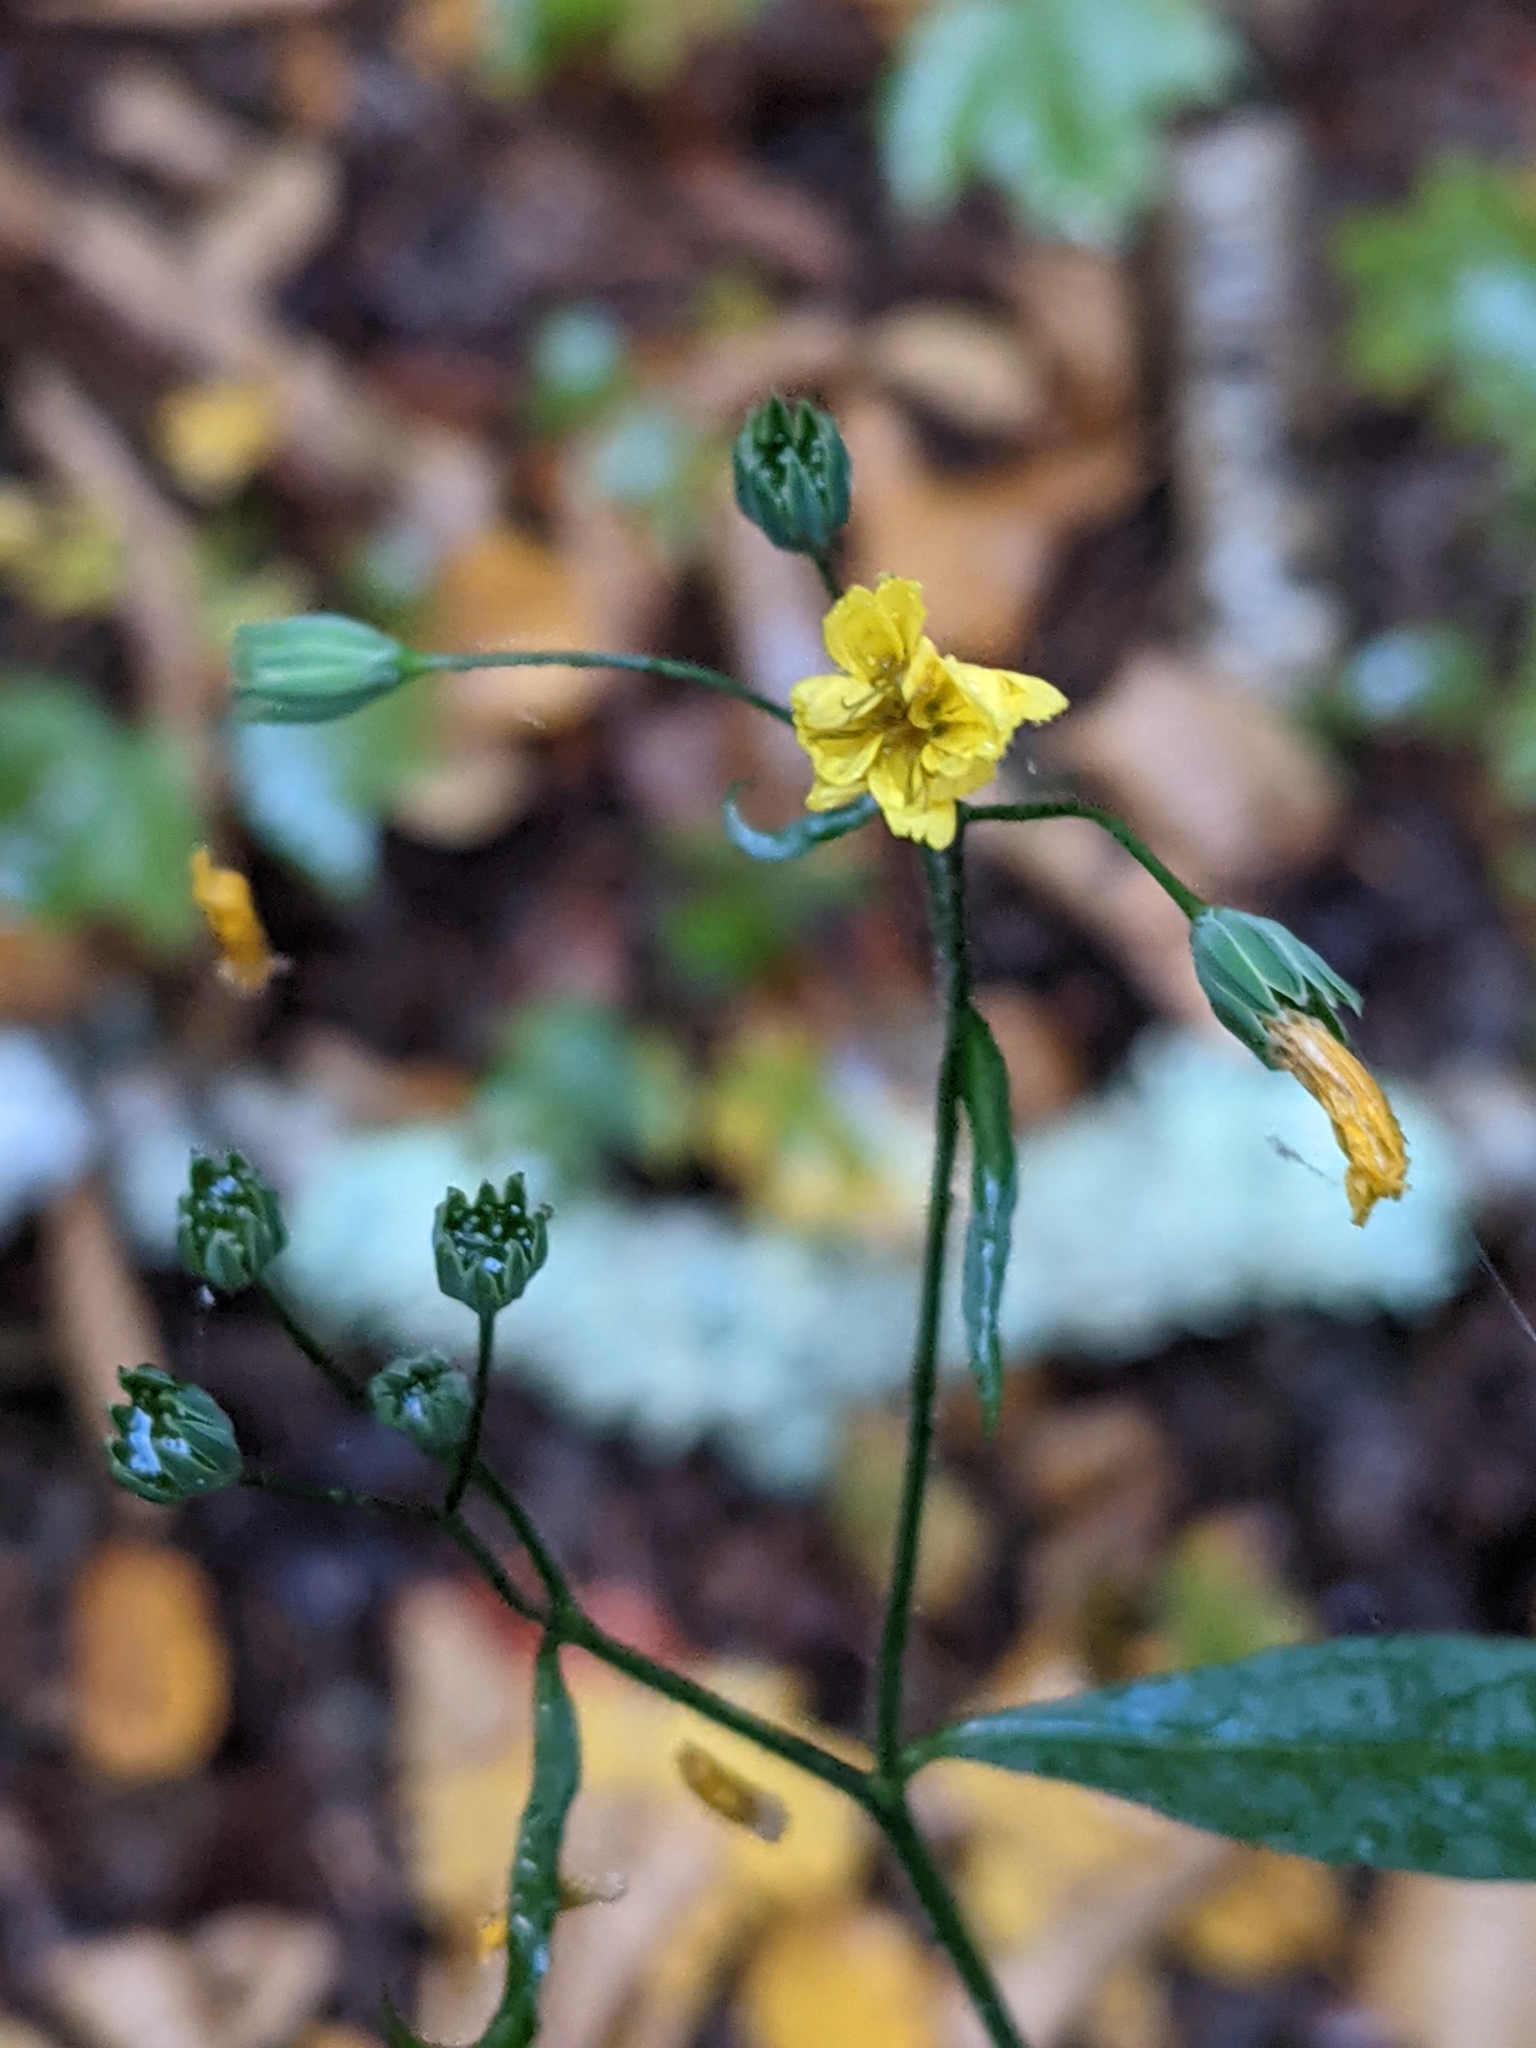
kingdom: Plantae
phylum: Tracheophyta
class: Magnoliopsida
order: Asterales
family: Asteraceae
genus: Lapsana
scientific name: Lapsana communis
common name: Nipplewort
